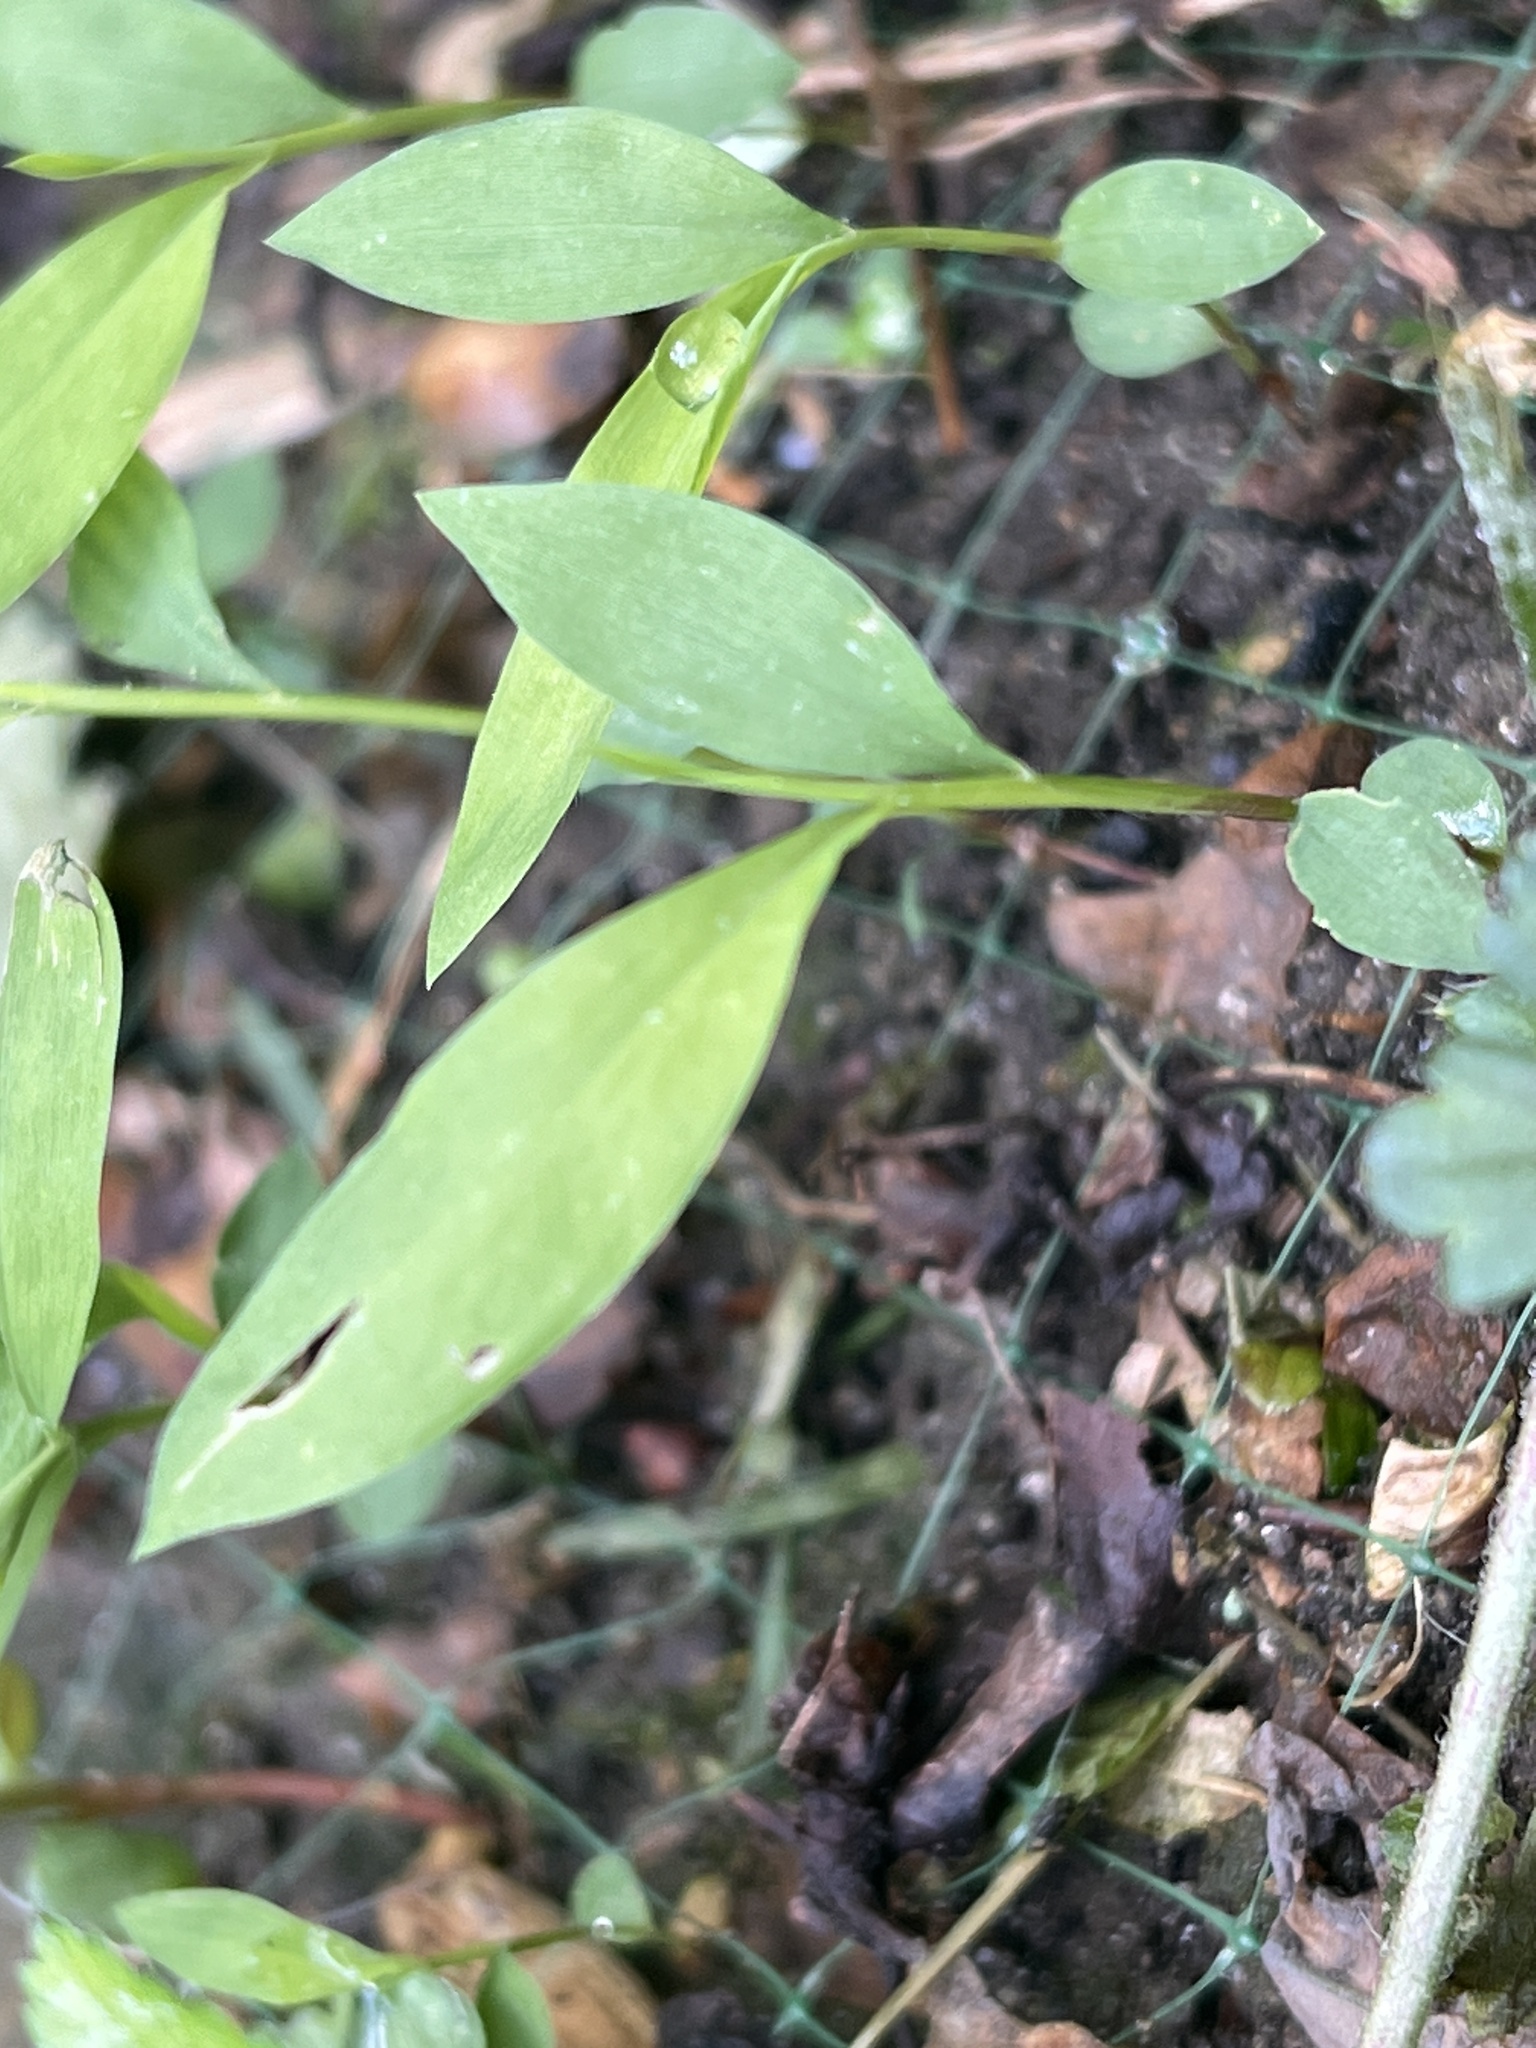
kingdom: Plantae
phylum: Tracheophyta
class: Liliopsida
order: Poales
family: Poaceae
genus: Microstegium
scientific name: Microstegium vimineum
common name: Japanese stiltgrass
